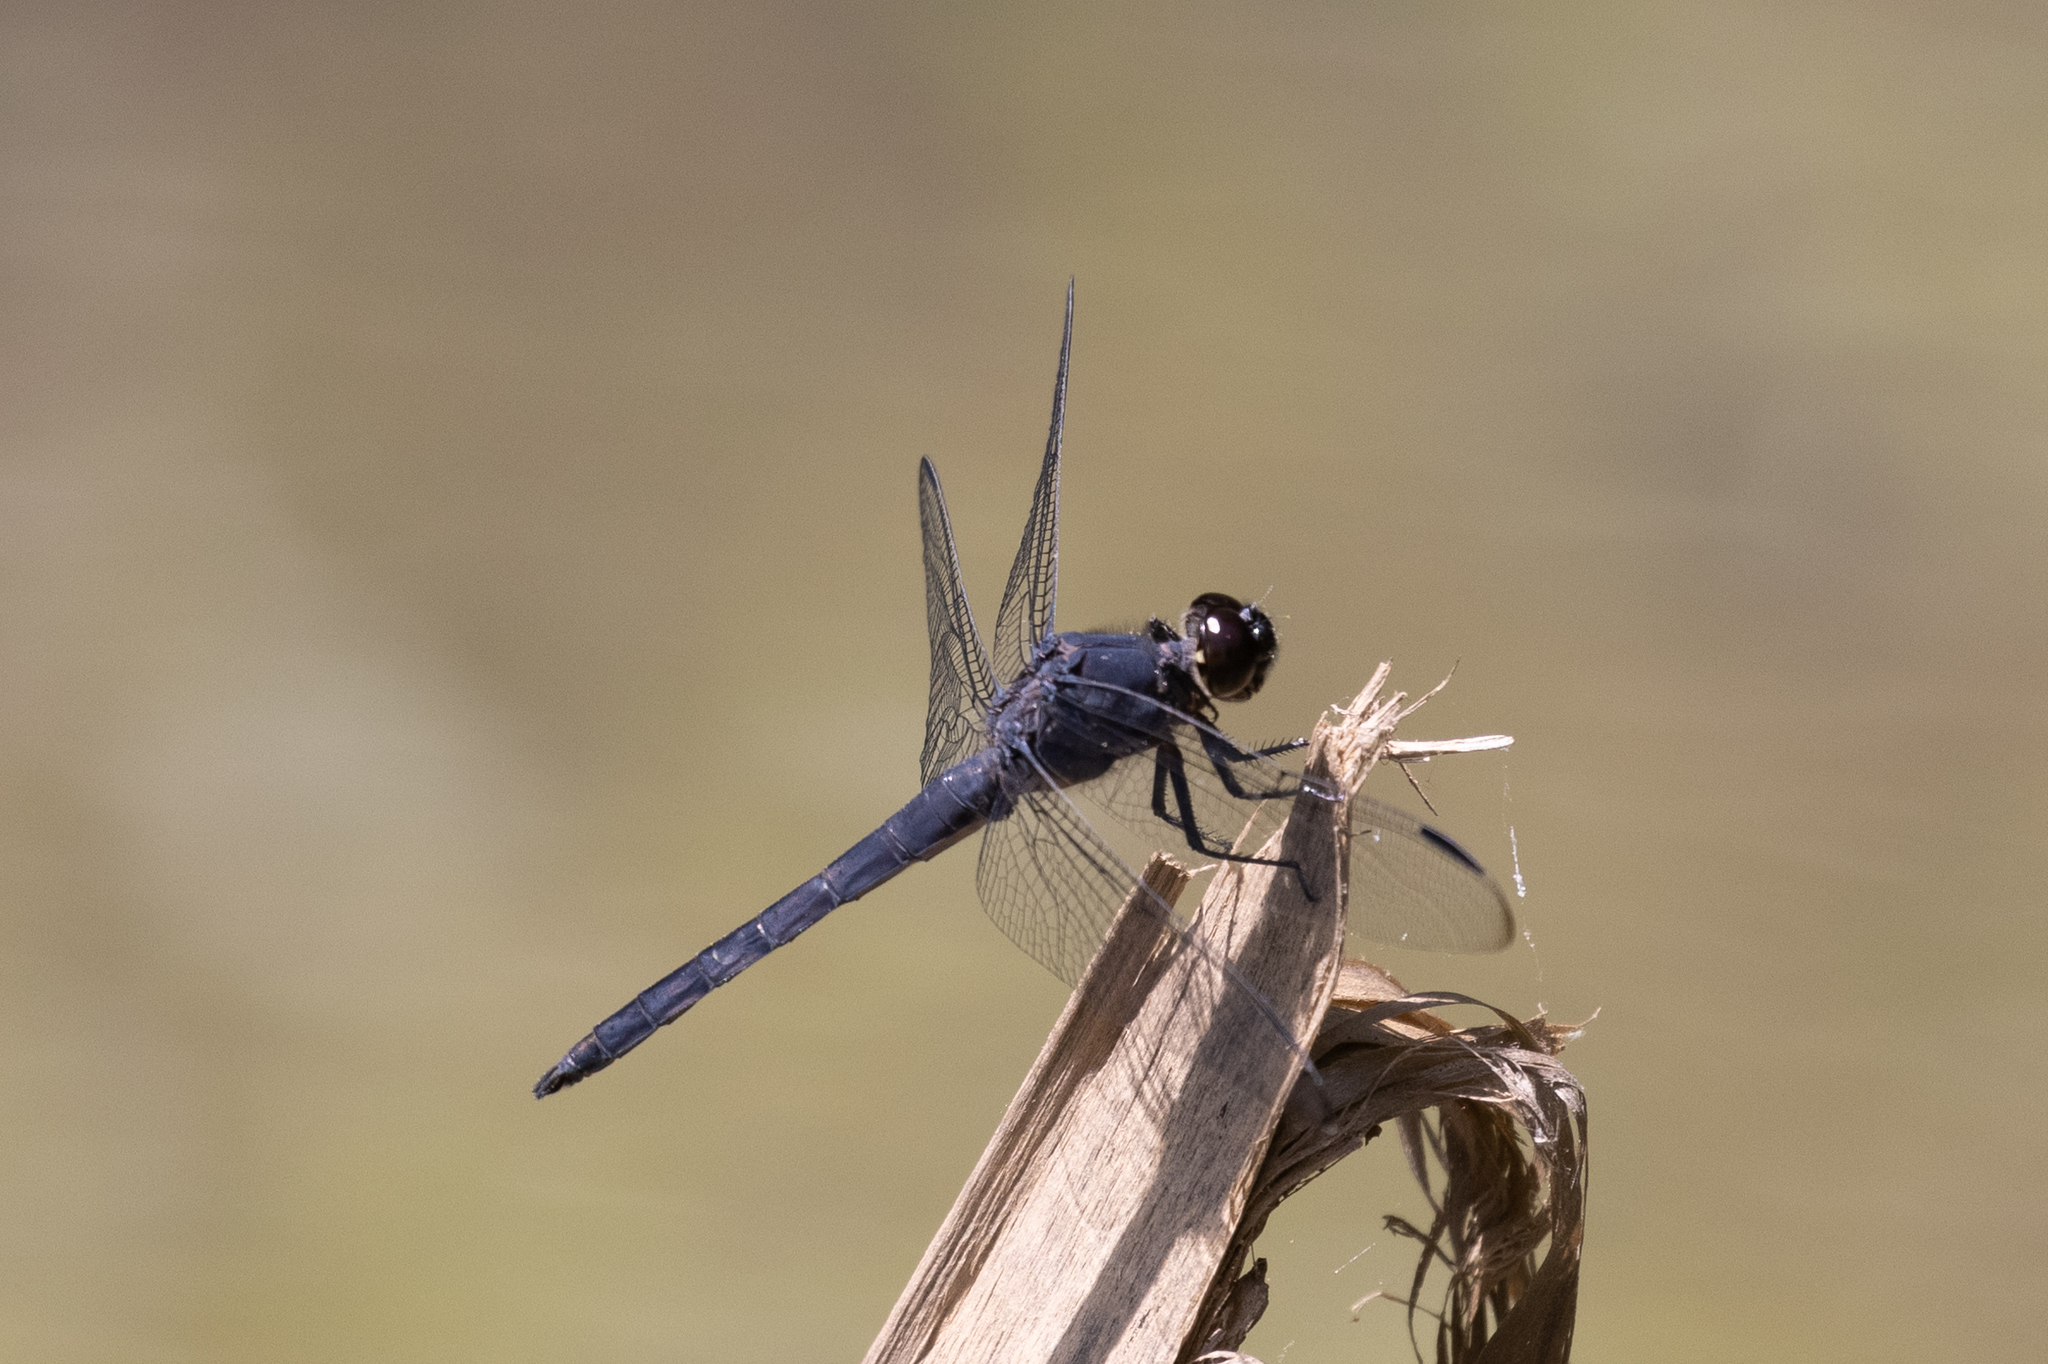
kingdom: Animalia
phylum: Arthropoda
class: Insecta
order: Odonata
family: Libellulidae
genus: Libellula
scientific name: Libellula incesta
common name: Slaty skimmer
